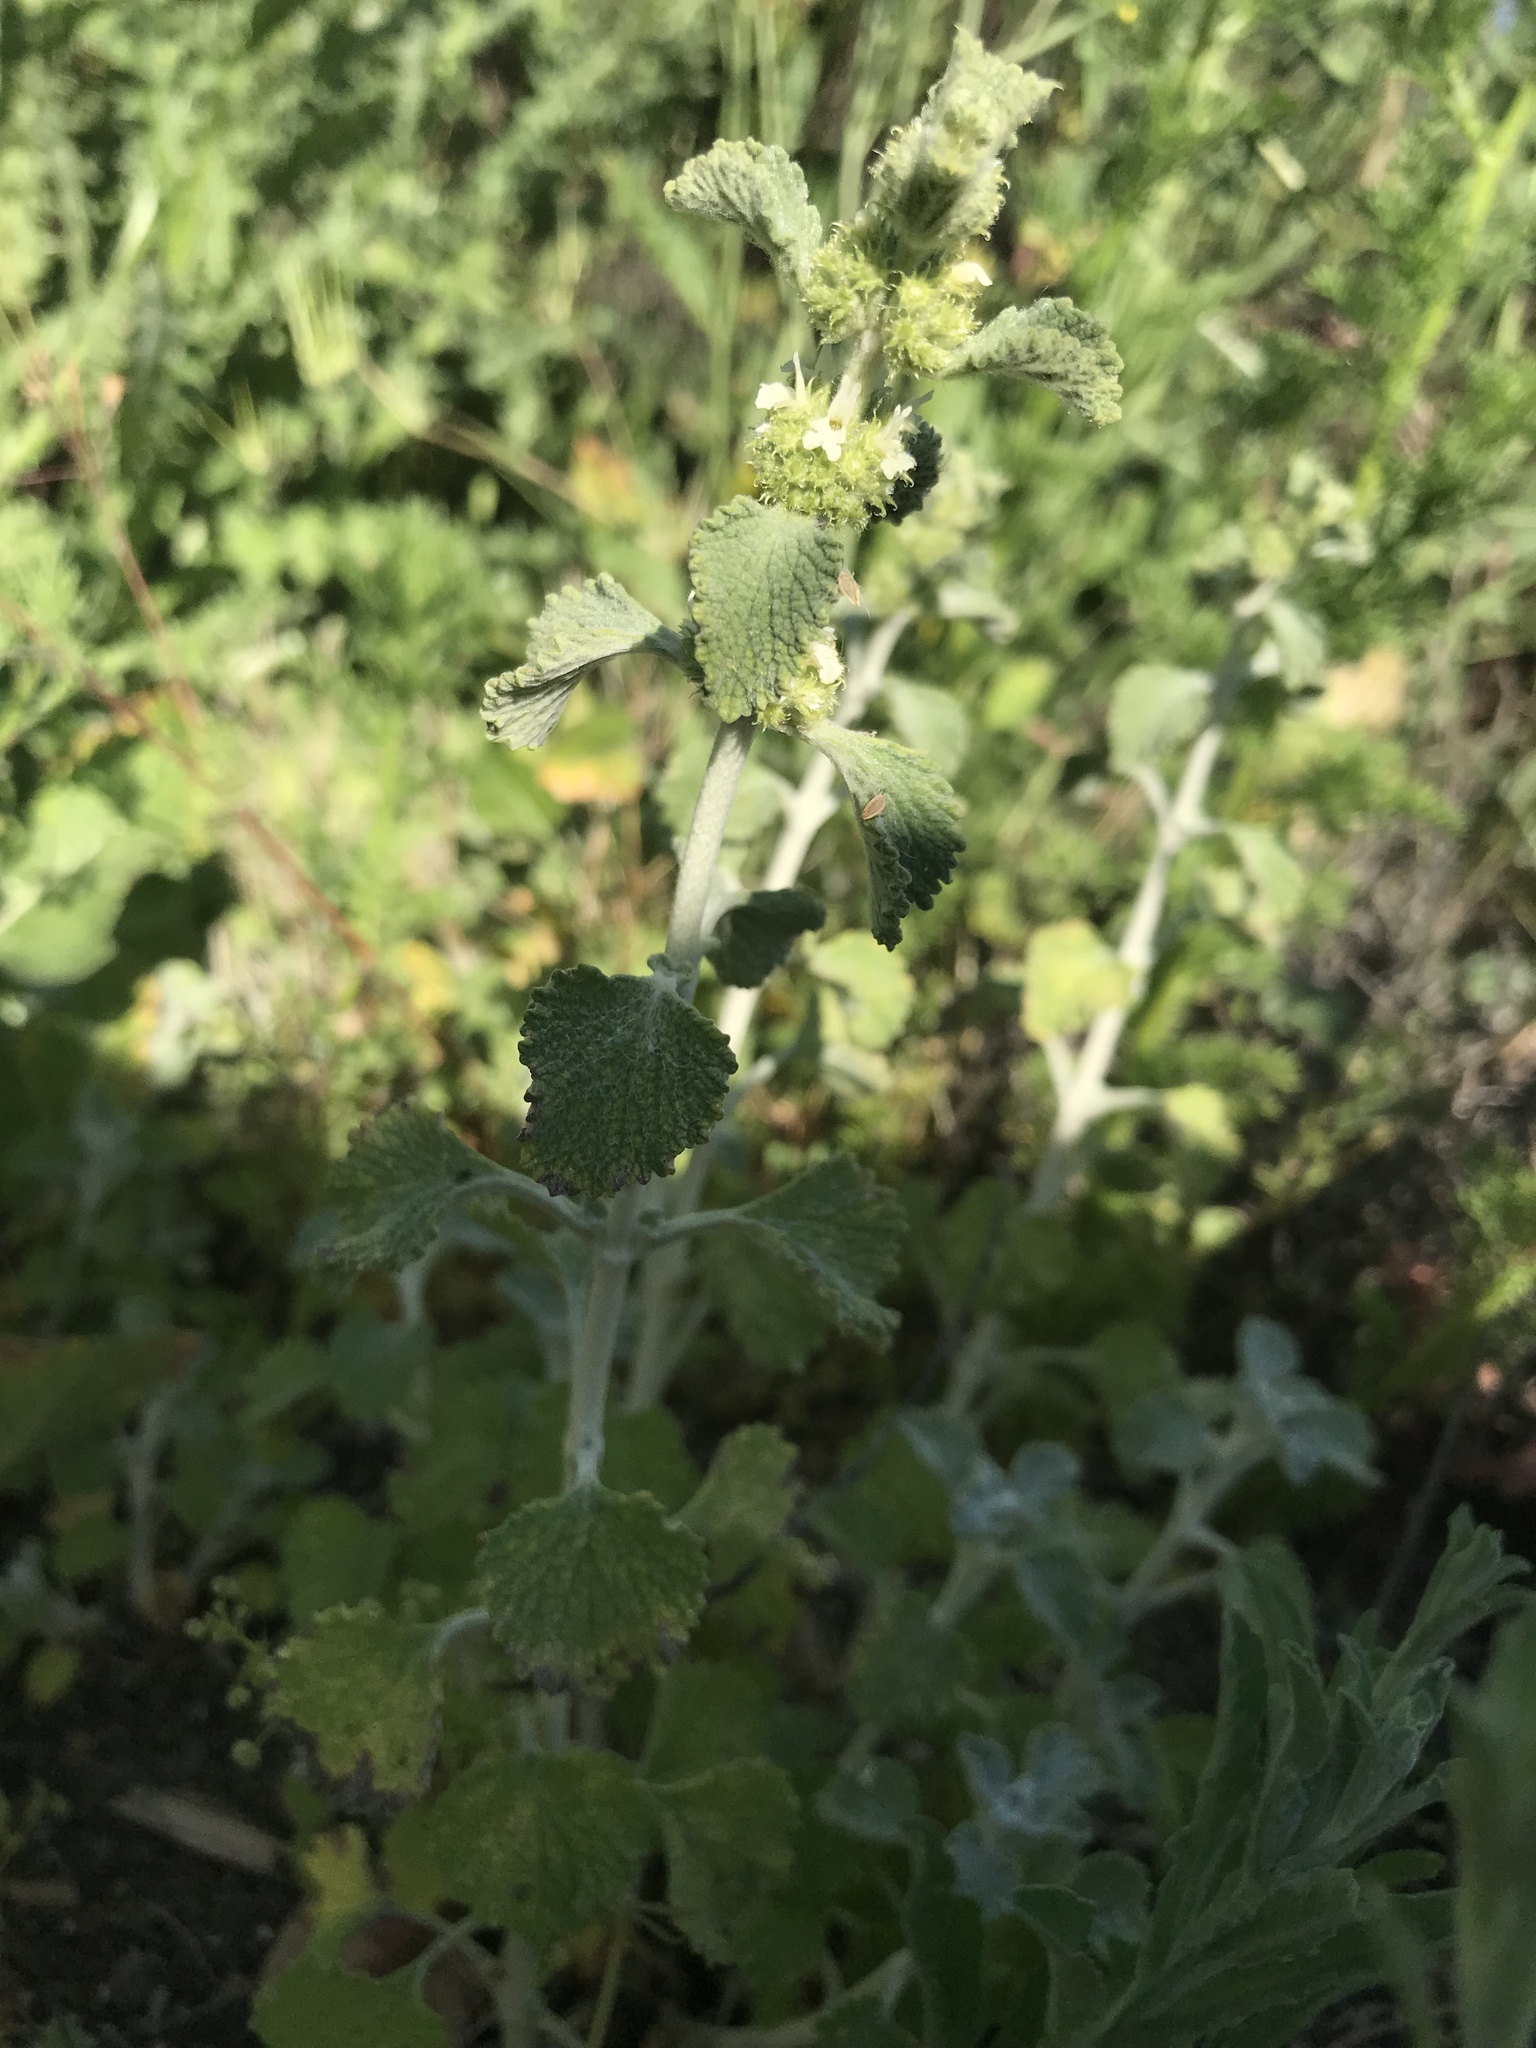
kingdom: Plantae
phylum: Tracheophyta
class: Magnoliopsida
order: Lamiales
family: Lamiaceae
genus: Marrubium
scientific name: Marrubium vulgare
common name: Horehound
